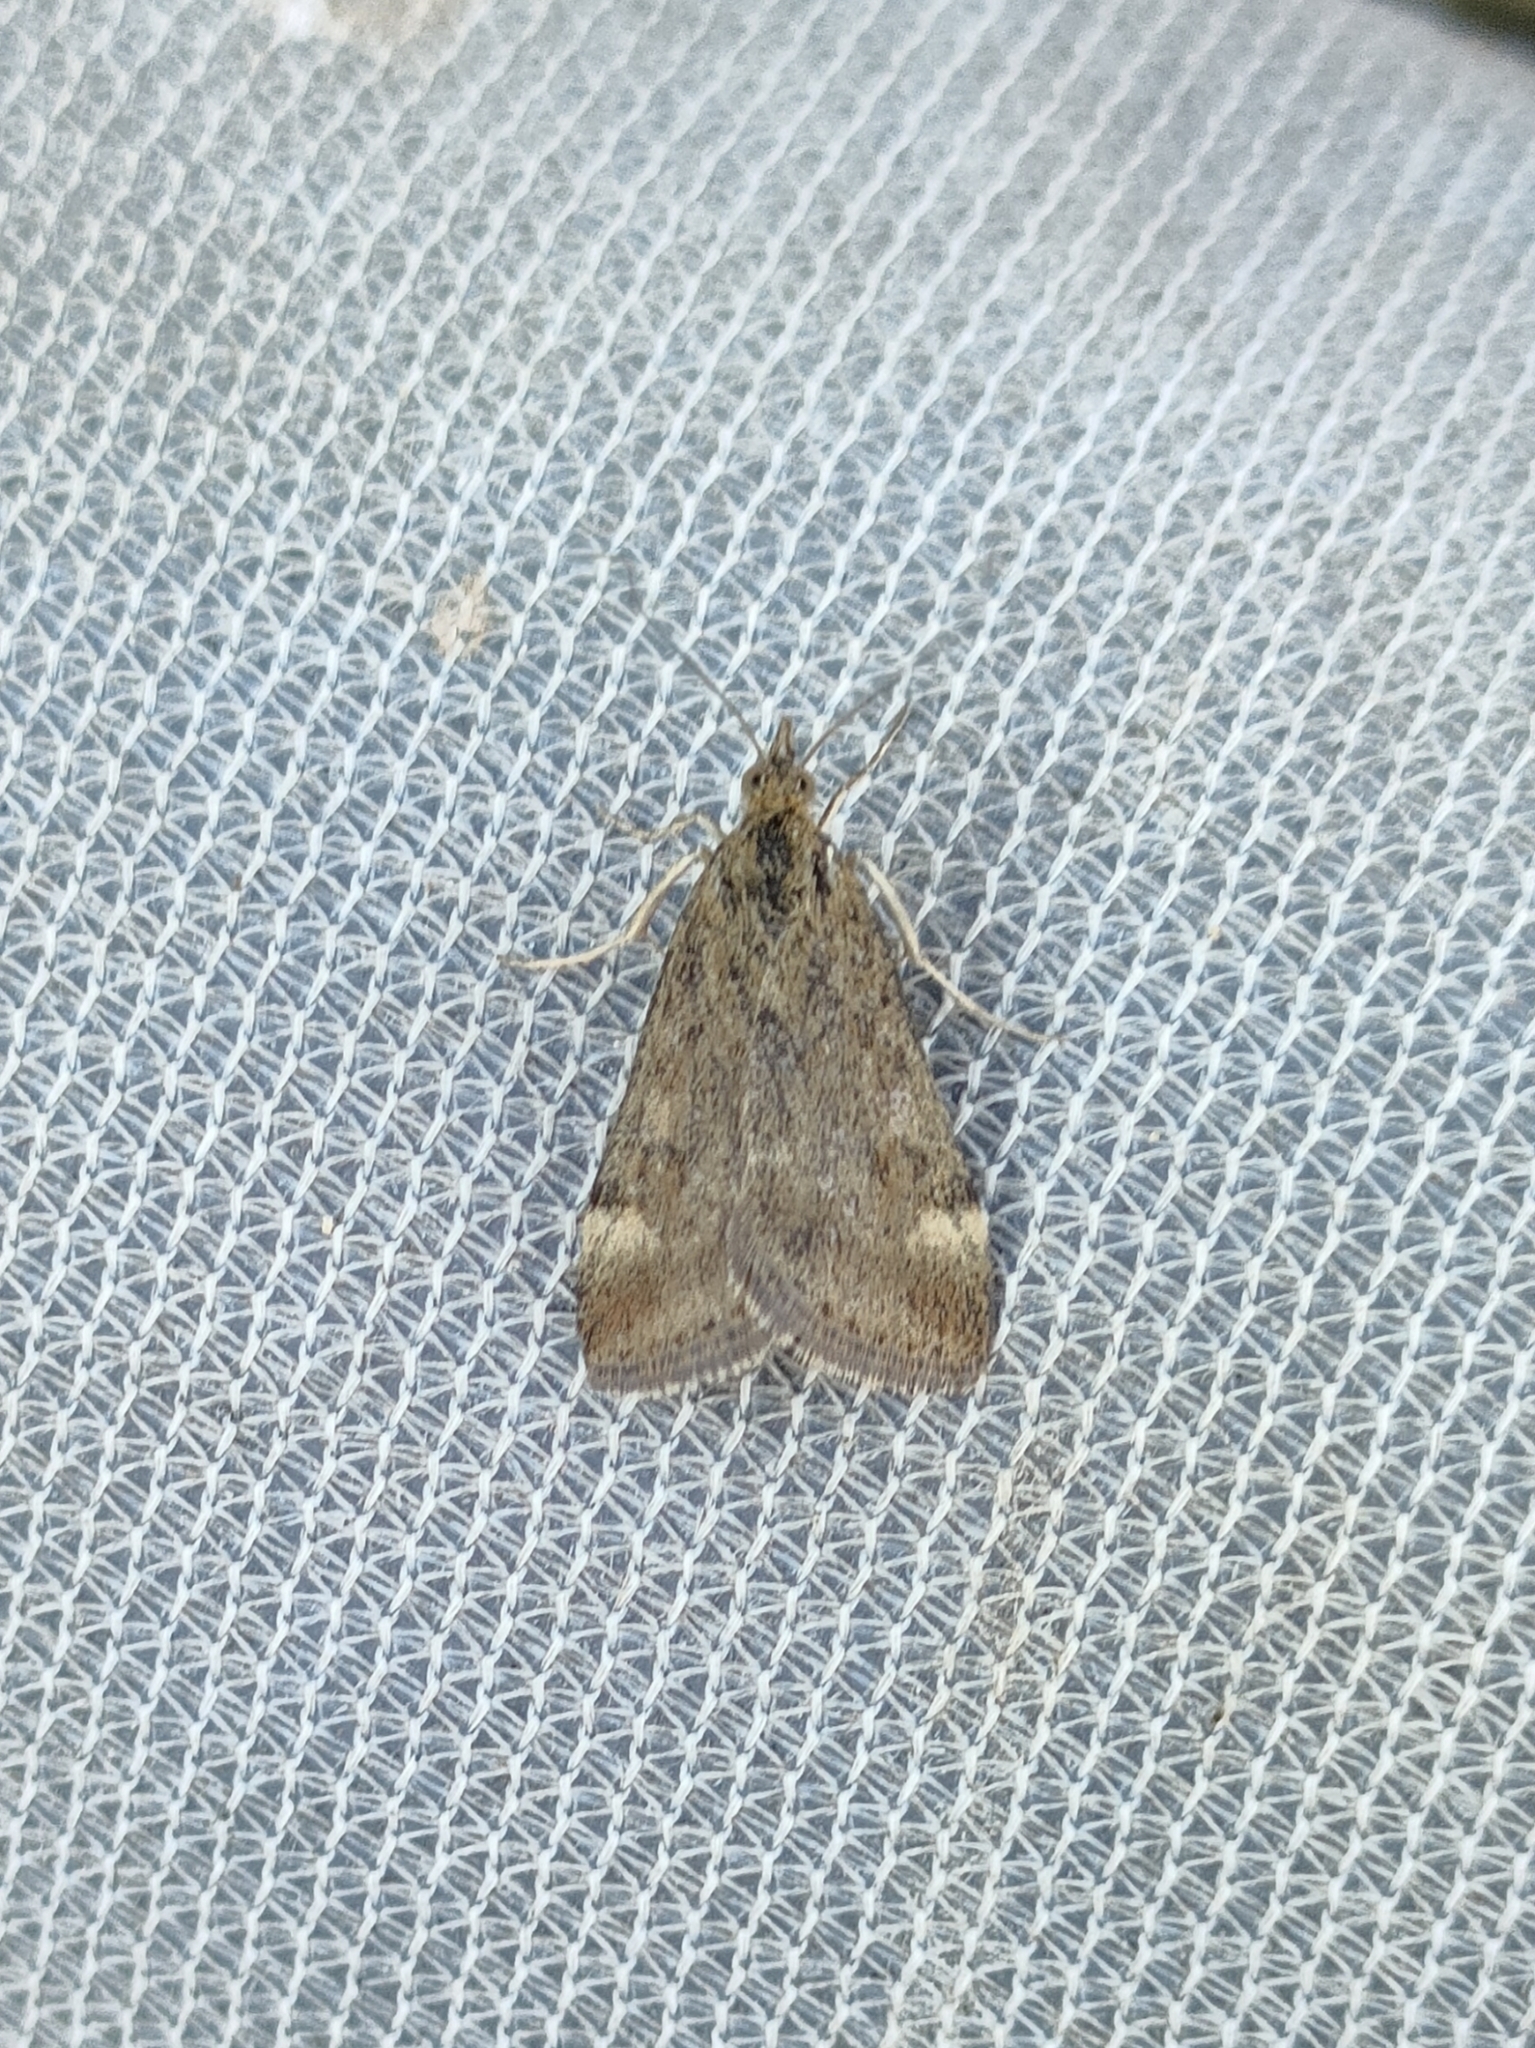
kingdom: Animalia
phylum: Arthropoda
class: Insecta
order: Lepidoptera
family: Crambidae
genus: Pyrausta
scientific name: Pyrausta despicata
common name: Straw-barred pearl
